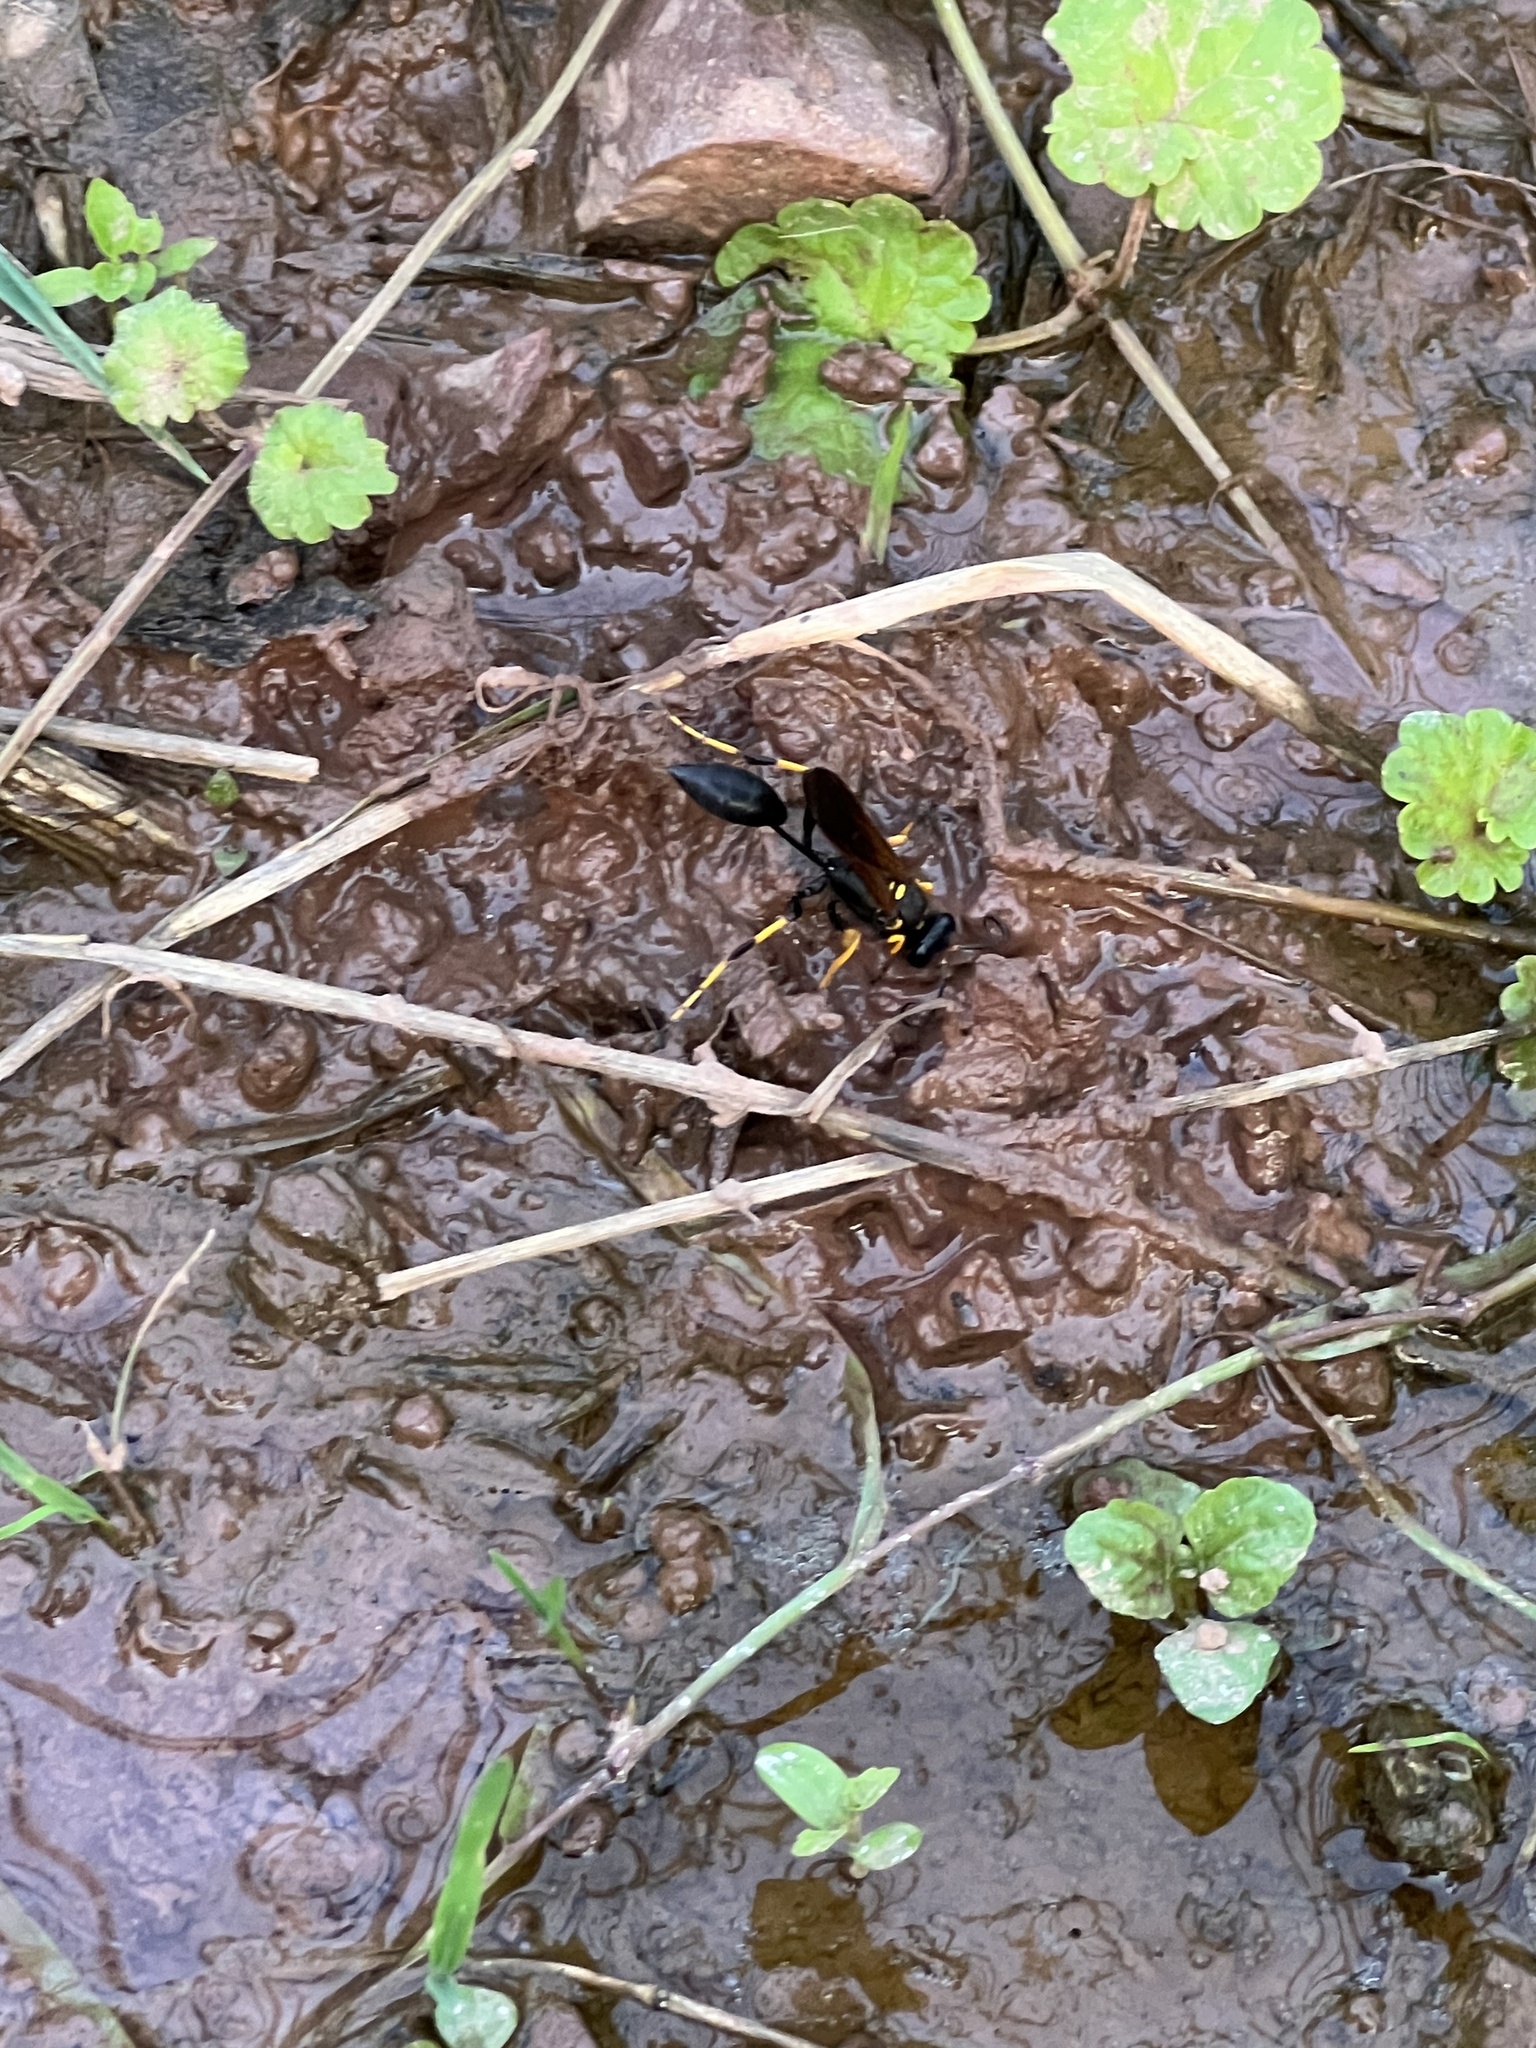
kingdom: Animalia
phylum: Arthropoda
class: Insecta
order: Hymenoptera
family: Sphecidae
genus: Sceliphron
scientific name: Sceliphron caementarium
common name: Mud dauber
